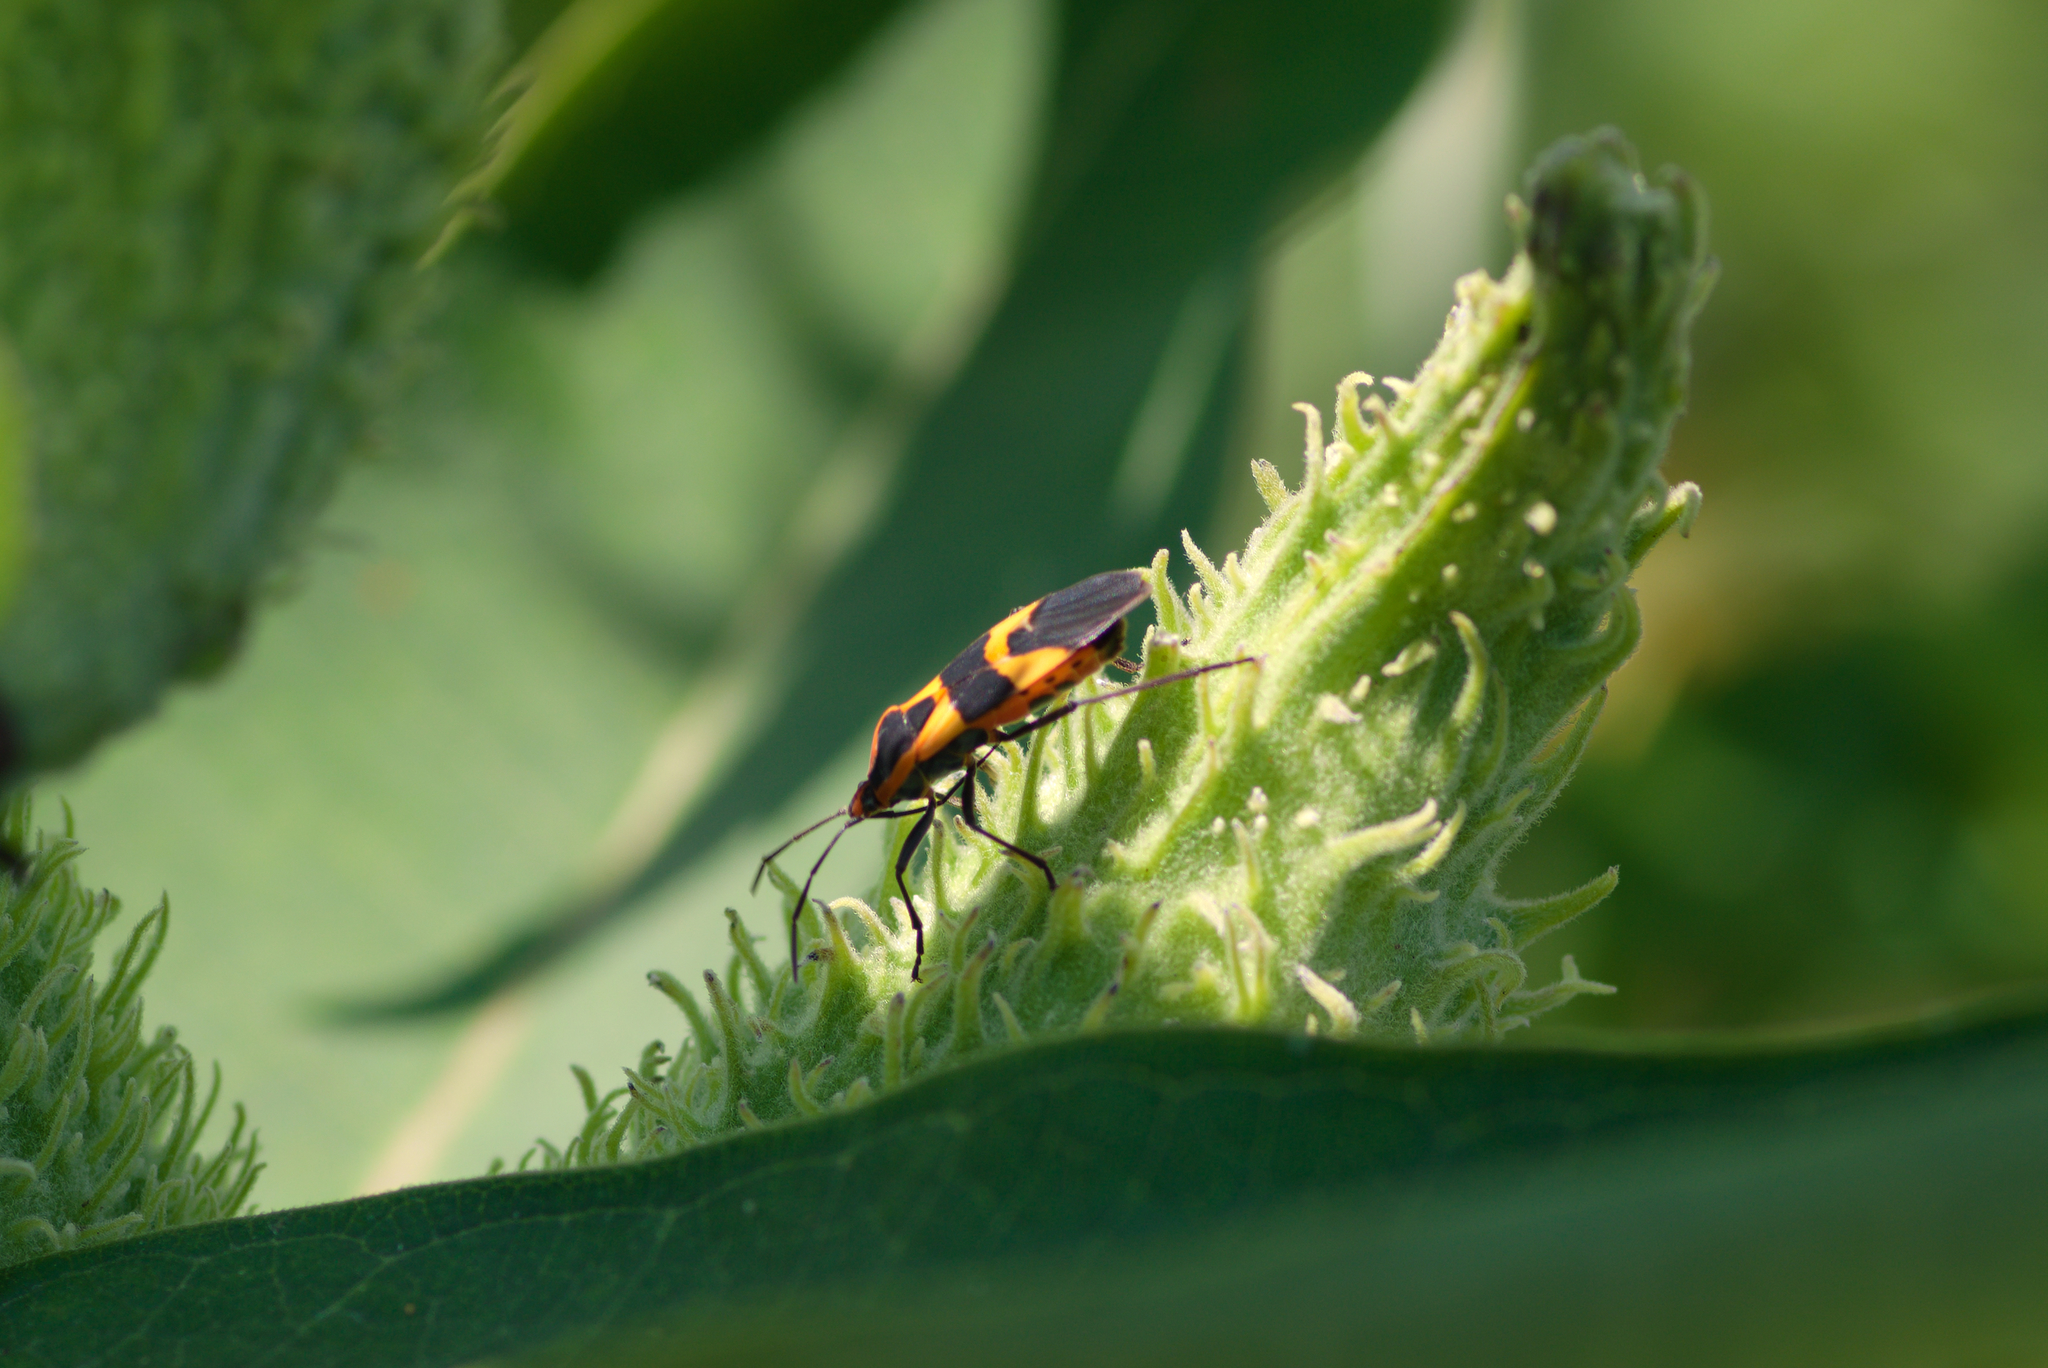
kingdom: Animalia
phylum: Arthropoda
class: Insecta
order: Hemiptera
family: Lygaeidae
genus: Oncopeltus
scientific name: Oncopeltus fasciatus
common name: Large milkweed bug
